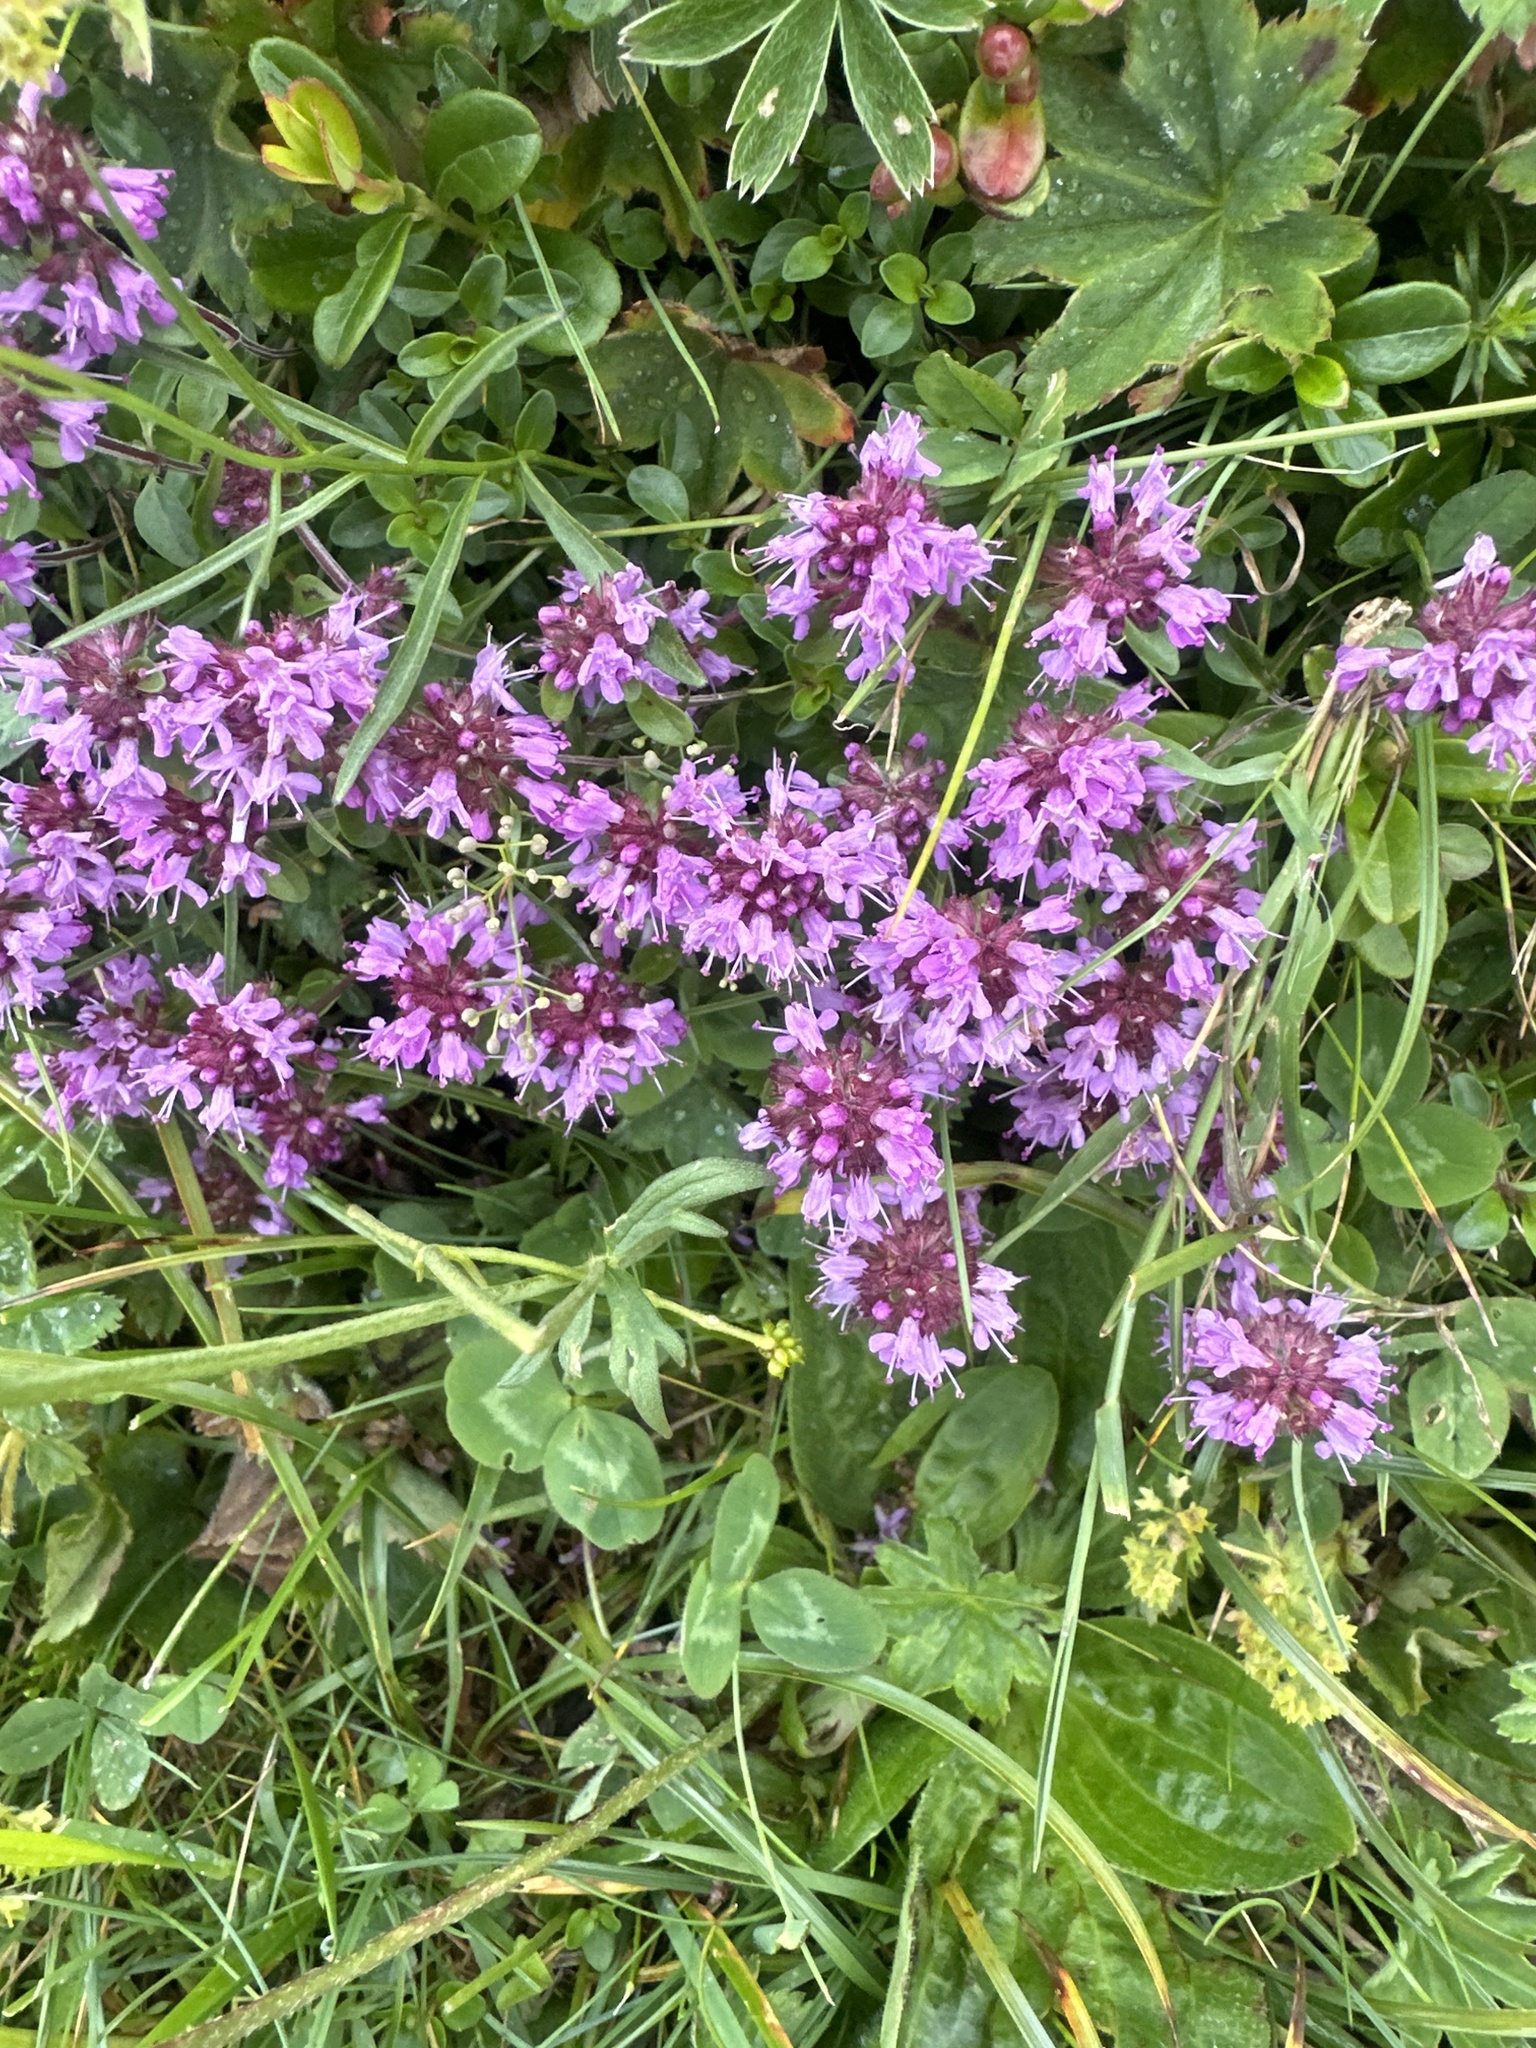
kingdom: Plantae
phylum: Tracheophyta
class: Magnoliopsida
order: Lamiales
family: Lamiaceae
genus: Thymus
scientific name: Thymus pulegioides
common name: Large thyme
